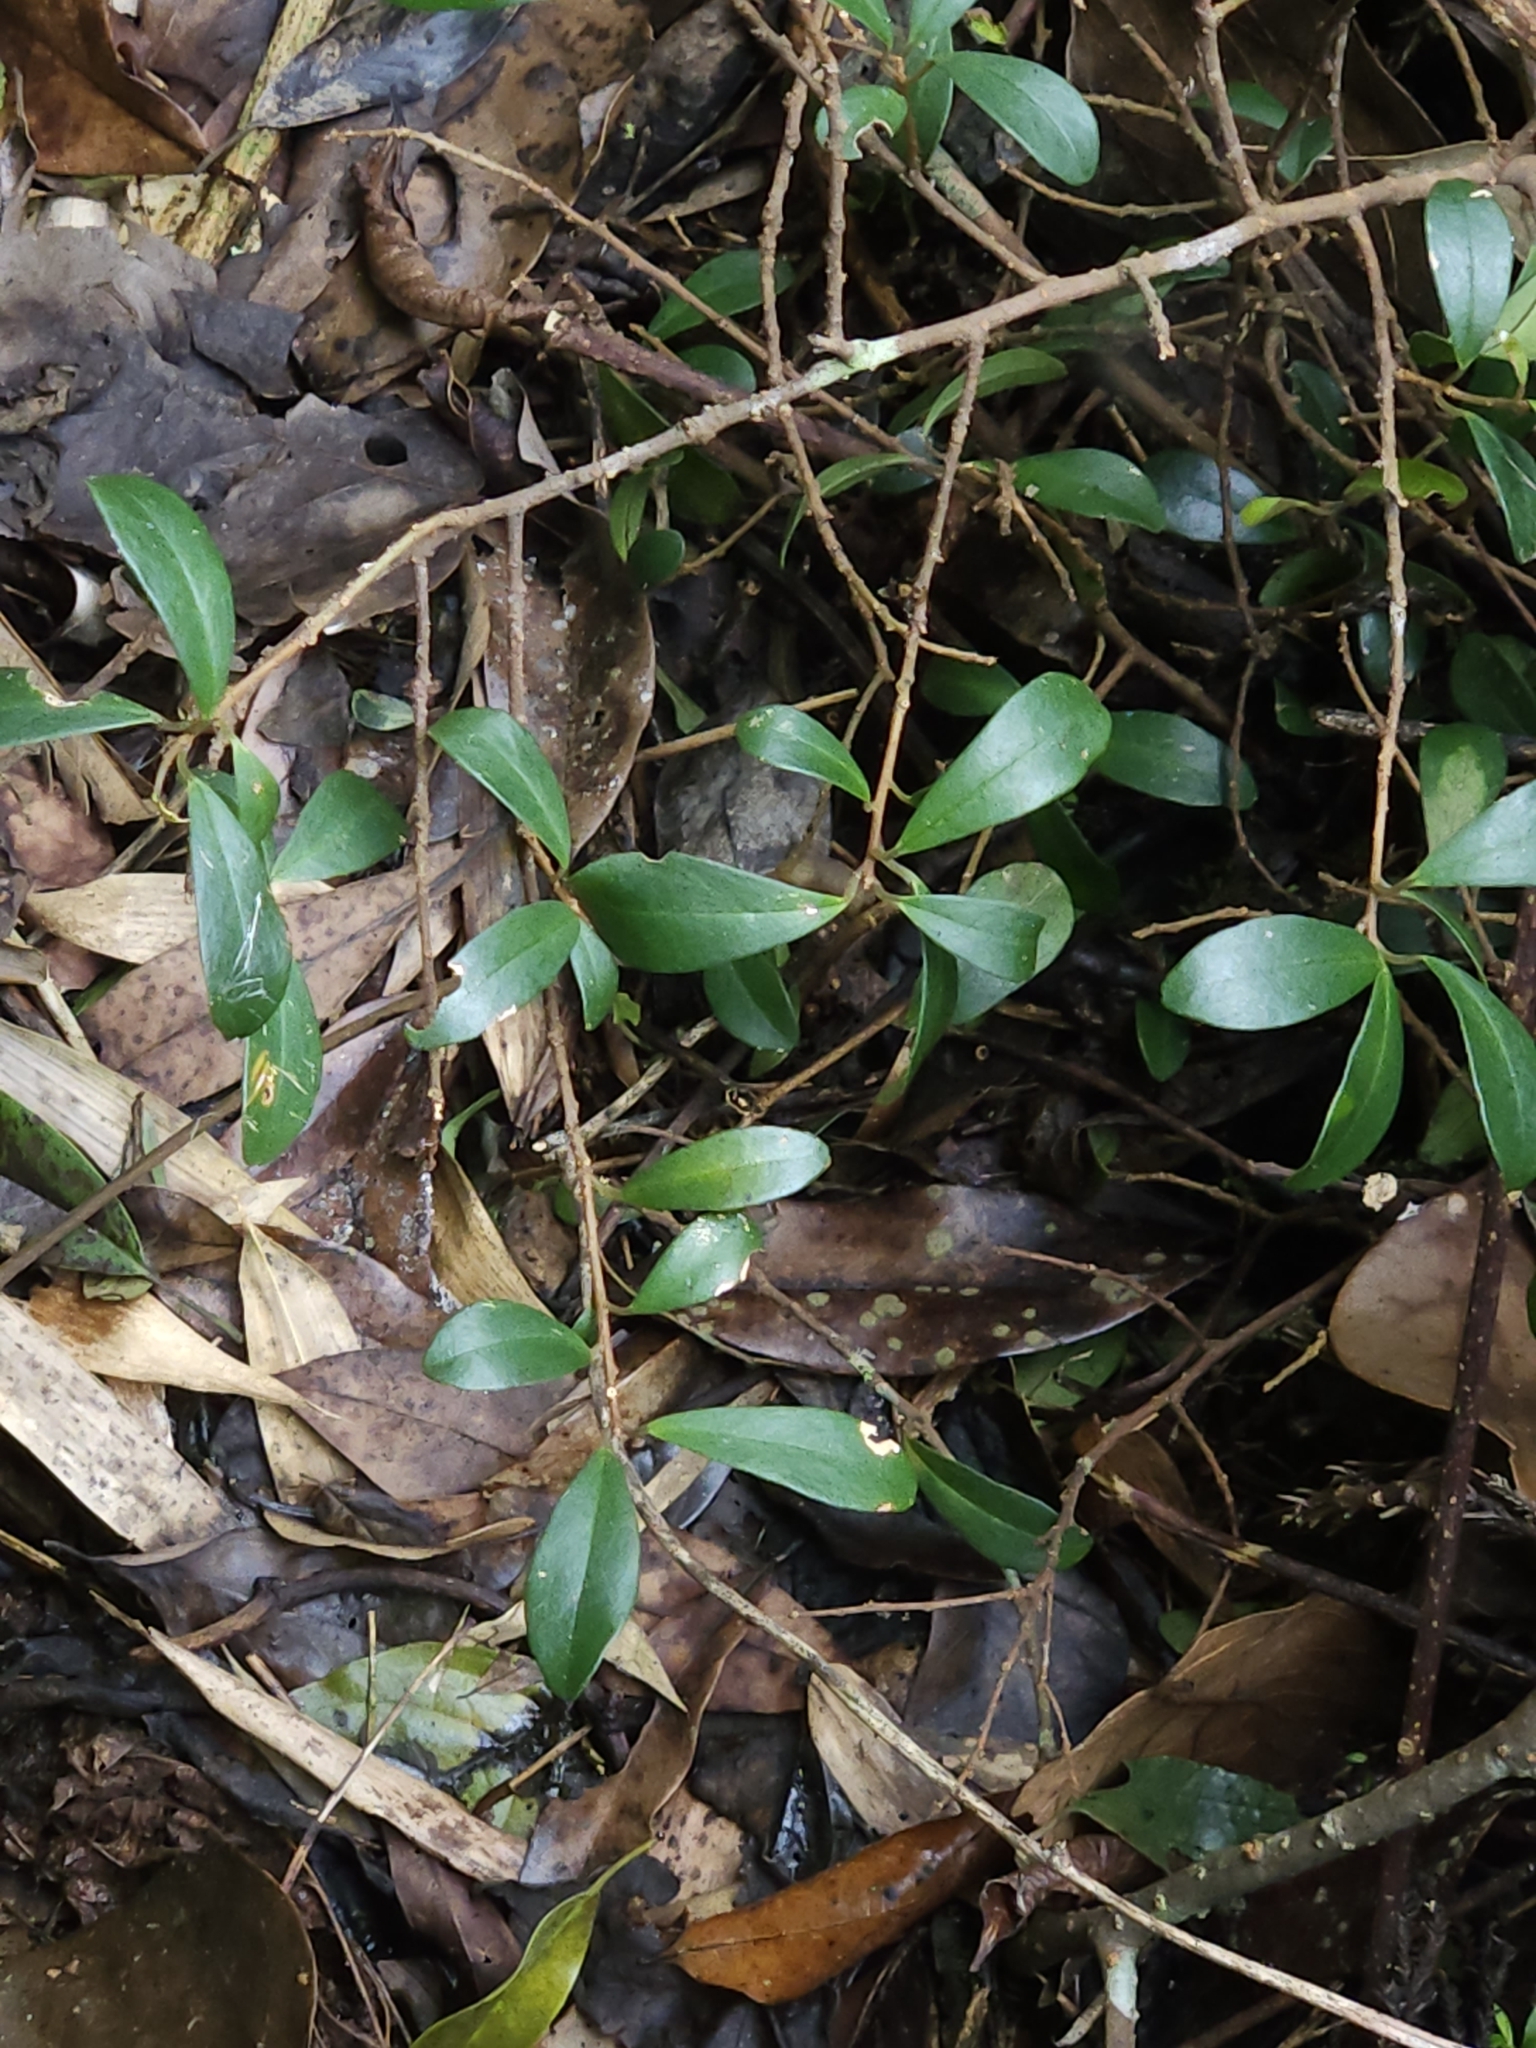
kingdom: Plantae
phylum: Tracheophyta
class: Magnoliopsida
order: Ericales
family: Primulaceae
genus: Embelia
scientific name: Embelia laeta
